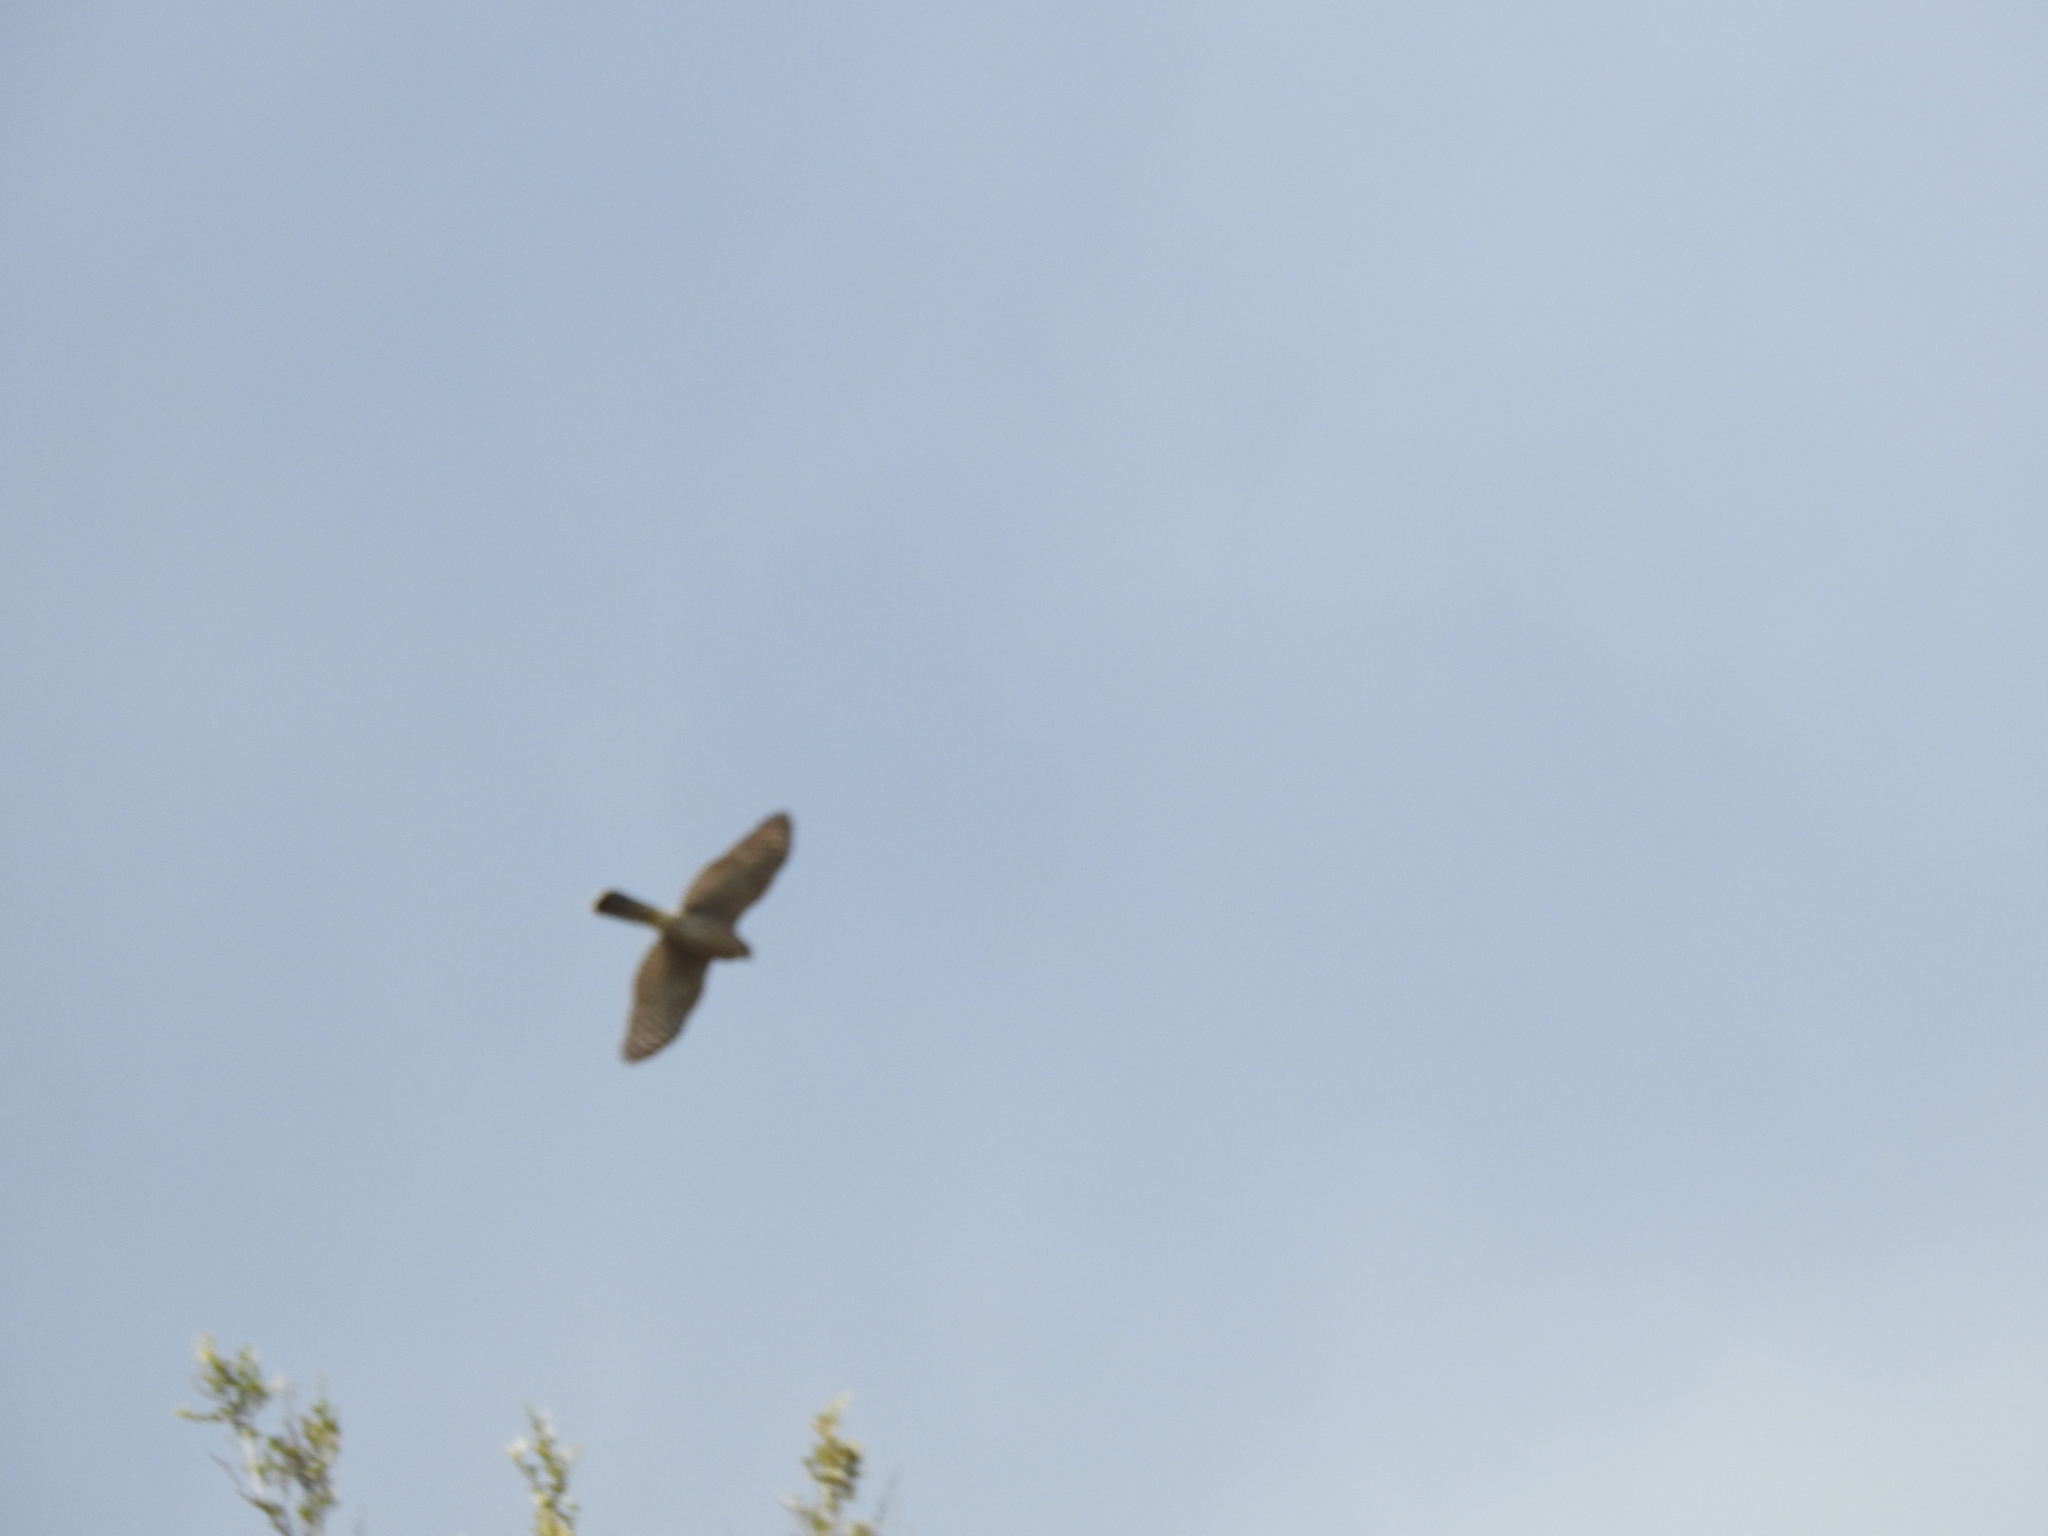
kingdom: Animalia
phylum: Chordata
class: Aves
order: Accipitriformes
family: Accipitridae
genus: Accipiter
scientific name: Accipiter cooperii
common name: Cooper's hawk
